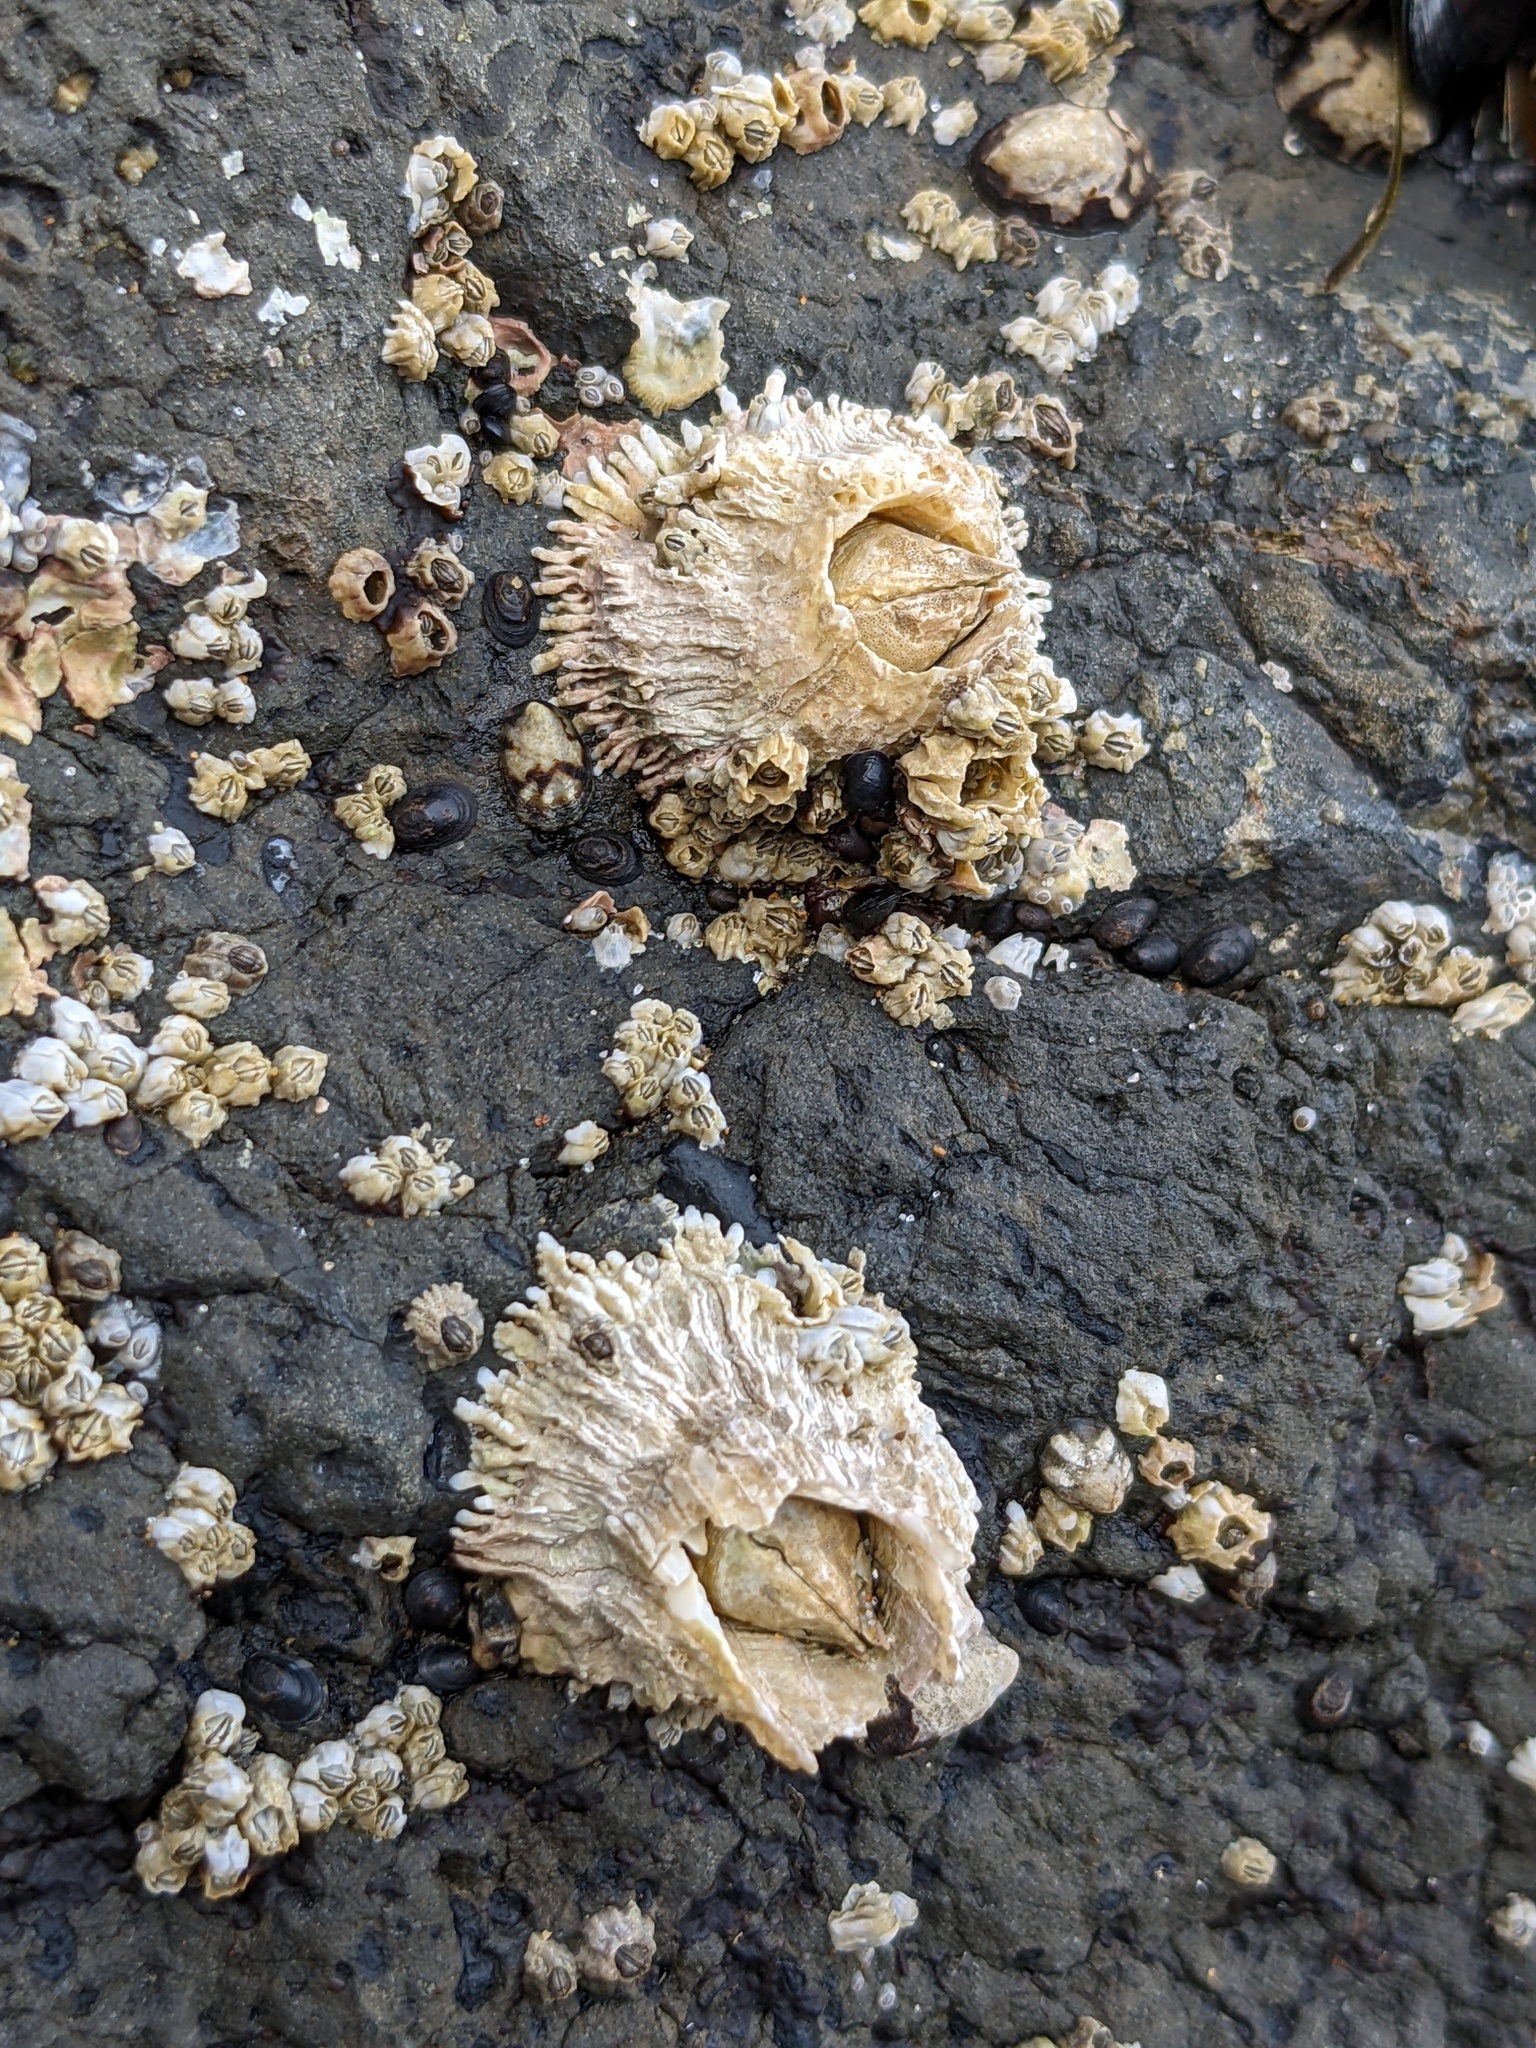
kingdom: Animalia
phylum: Arthropoda
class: Maxillopoda
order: Sessilia
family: Archaeobalanidae
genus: Semibalanus
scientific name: Semibalanus cariosus
